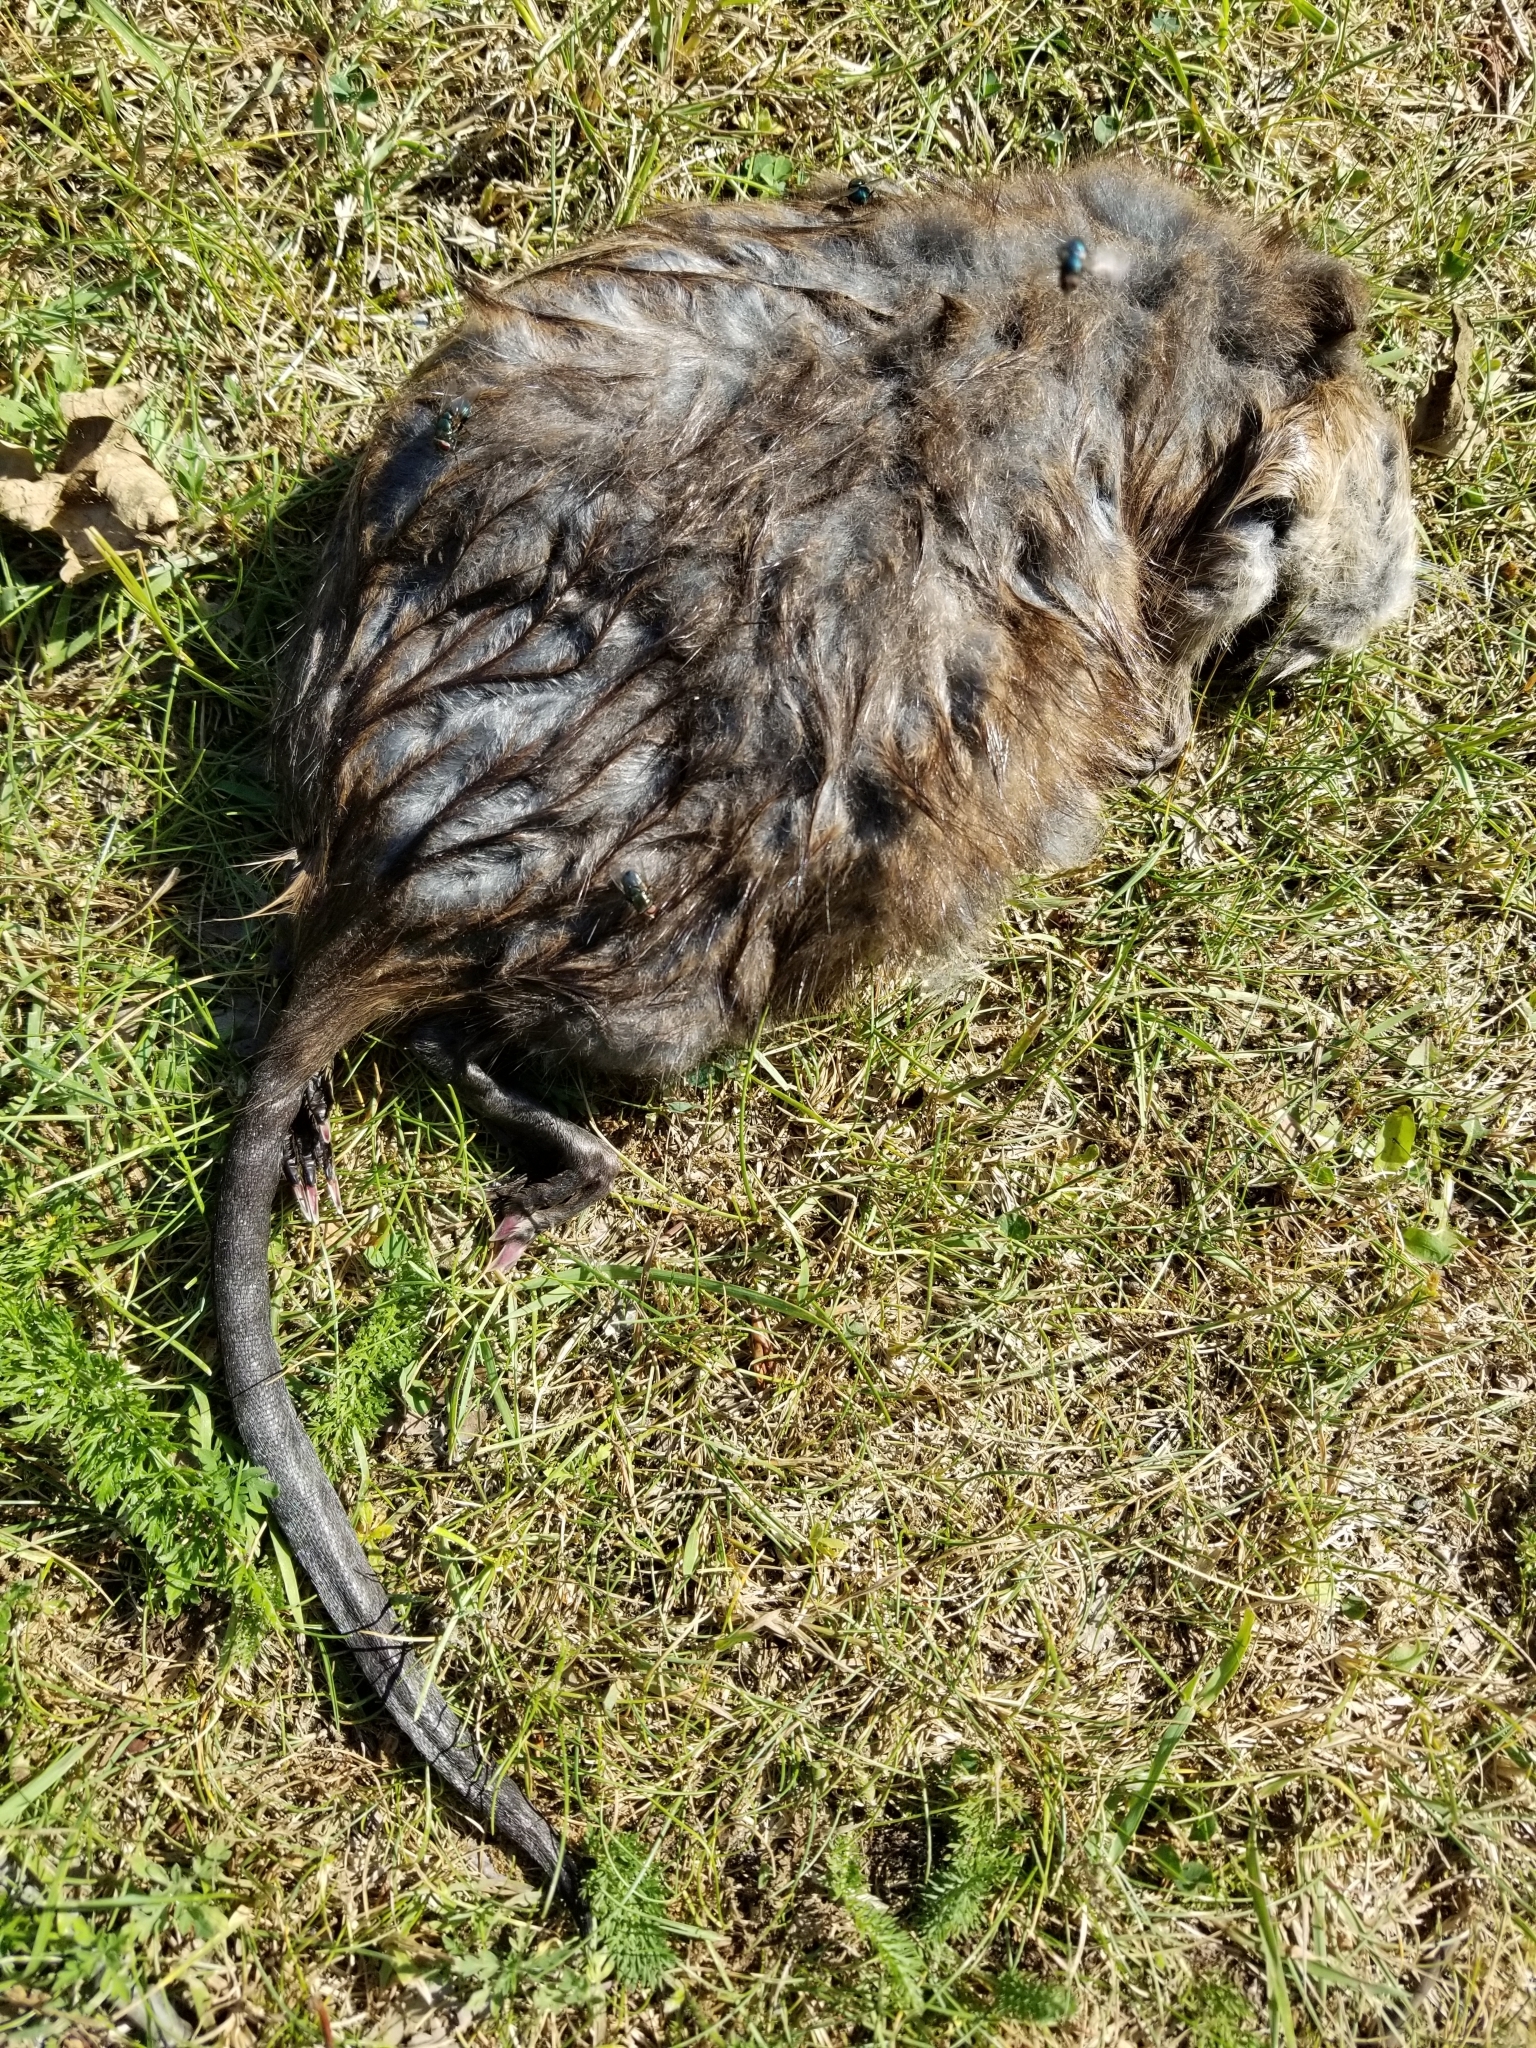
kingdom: Animalia
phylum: Chordata
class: Mammalia
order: Rodentia
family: Cricetidae
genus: Ondatra
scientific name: Ondatra zibethicus
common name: Muskrat
